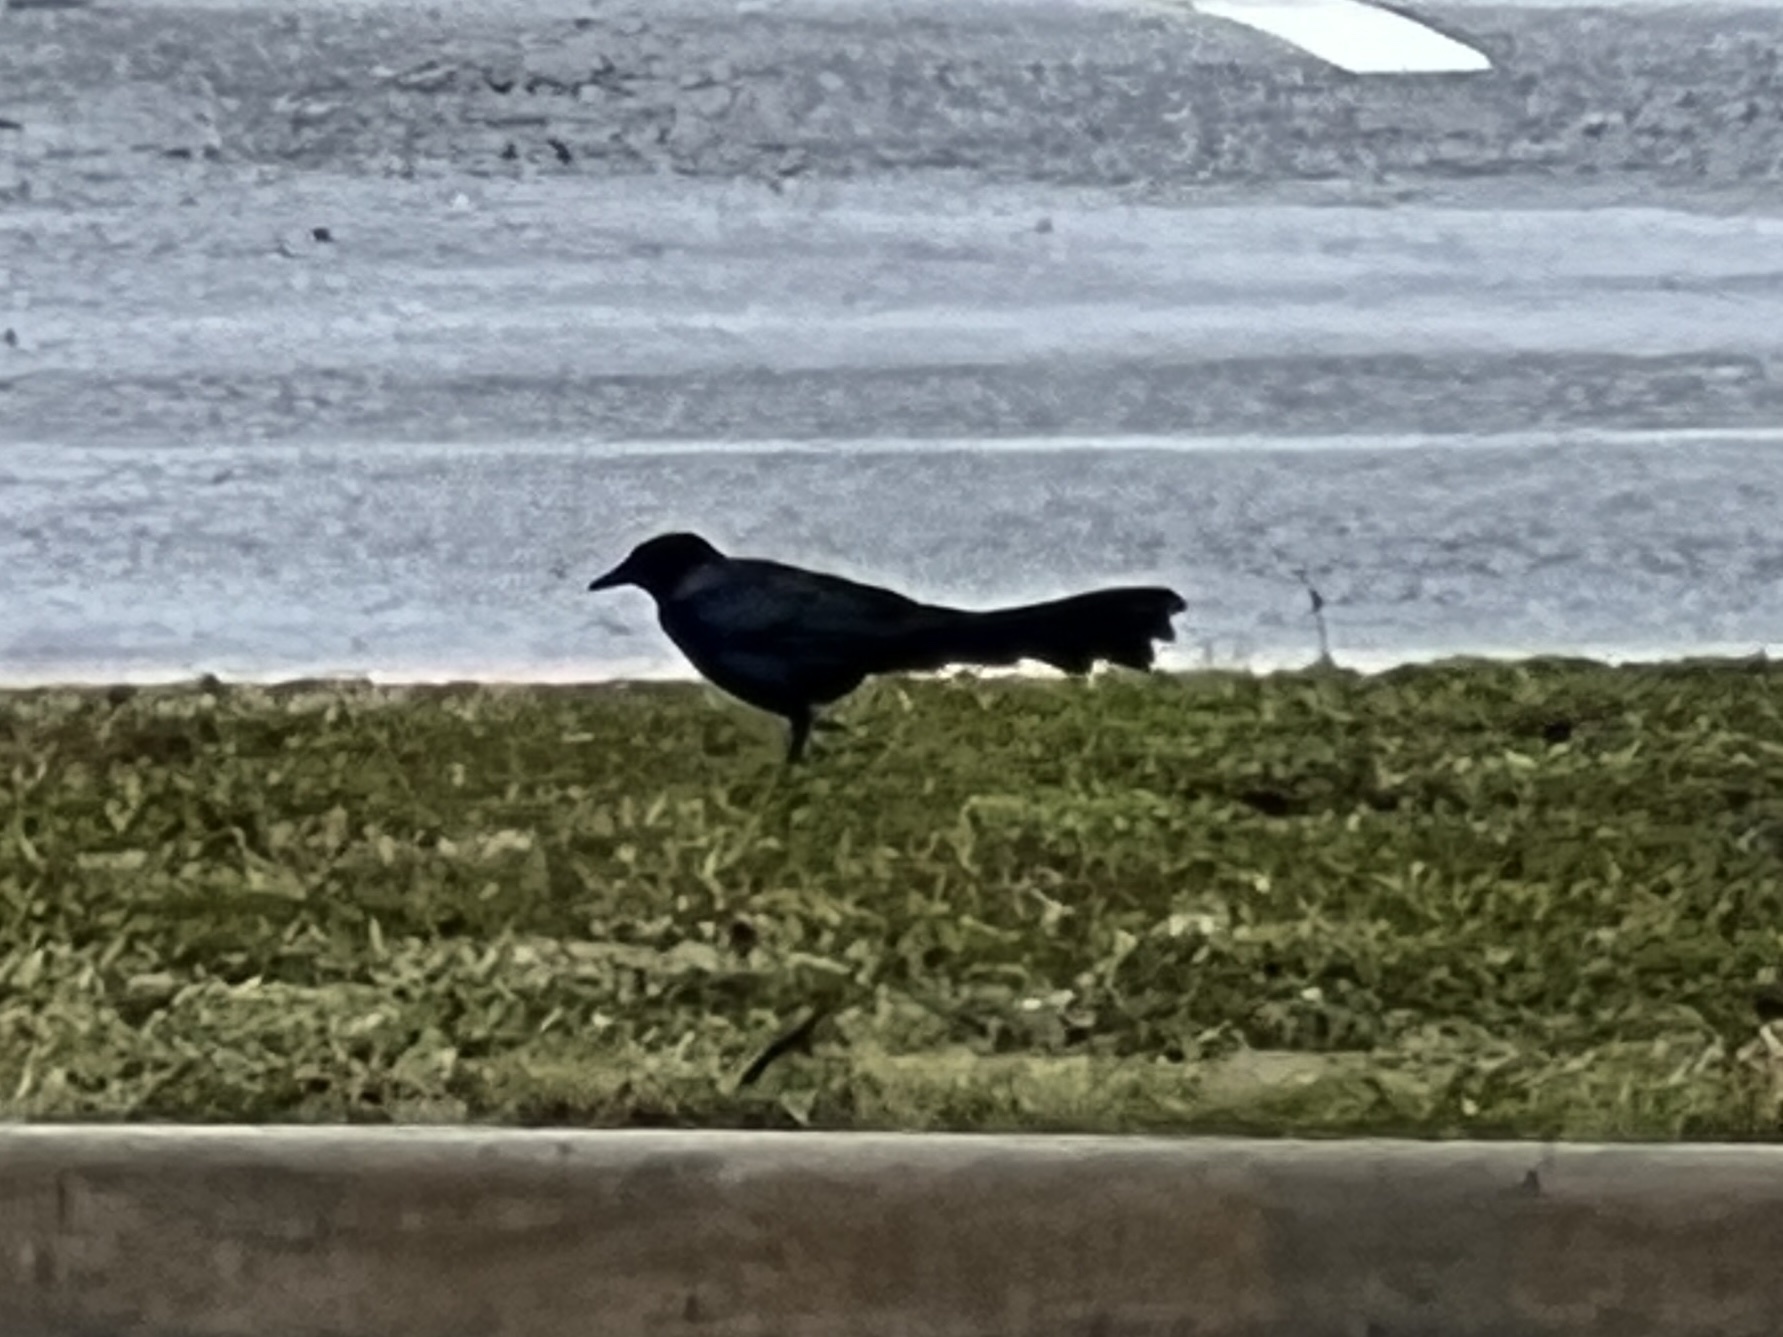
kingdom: Animalia
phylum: Chordata
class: Aves
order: Passeriformes
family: Icteridae
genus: Quiscalus
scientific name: Quiscalus mexicanus
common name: Great-tailed grackle
